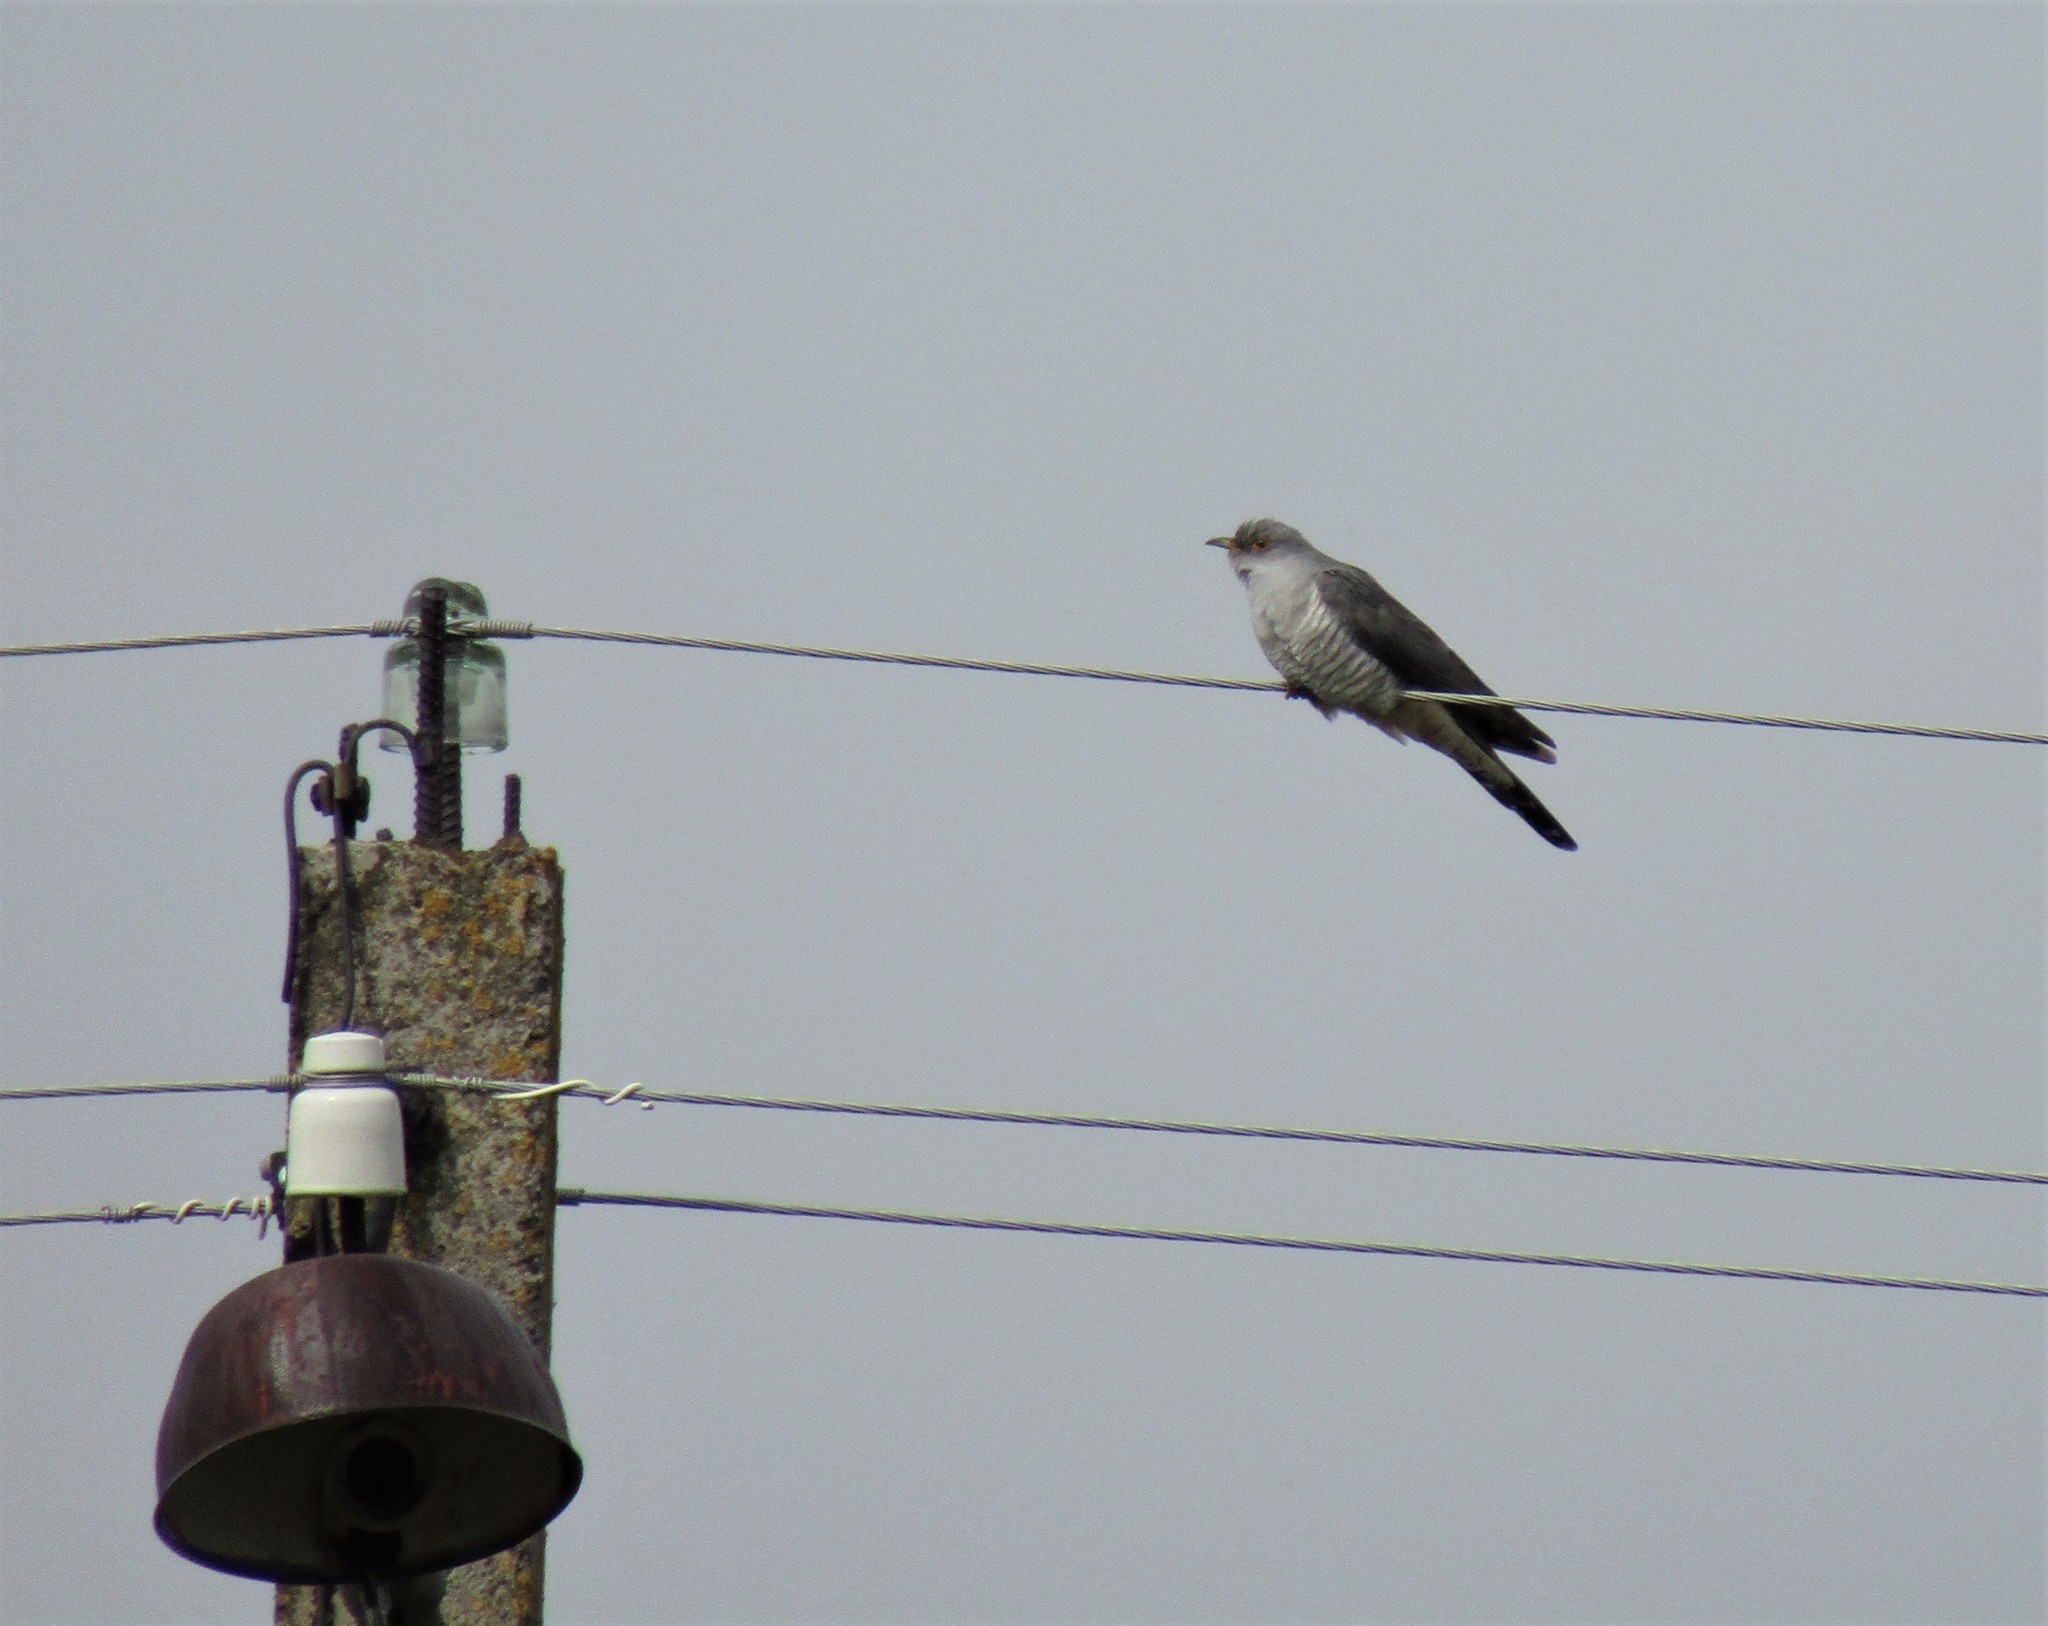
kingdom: Animalia
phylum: Chordata
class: Aves
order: Cuculiformes
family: Cuculidae
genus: Cuculus
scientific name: Cuculus canorus
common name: Common cuckoo
